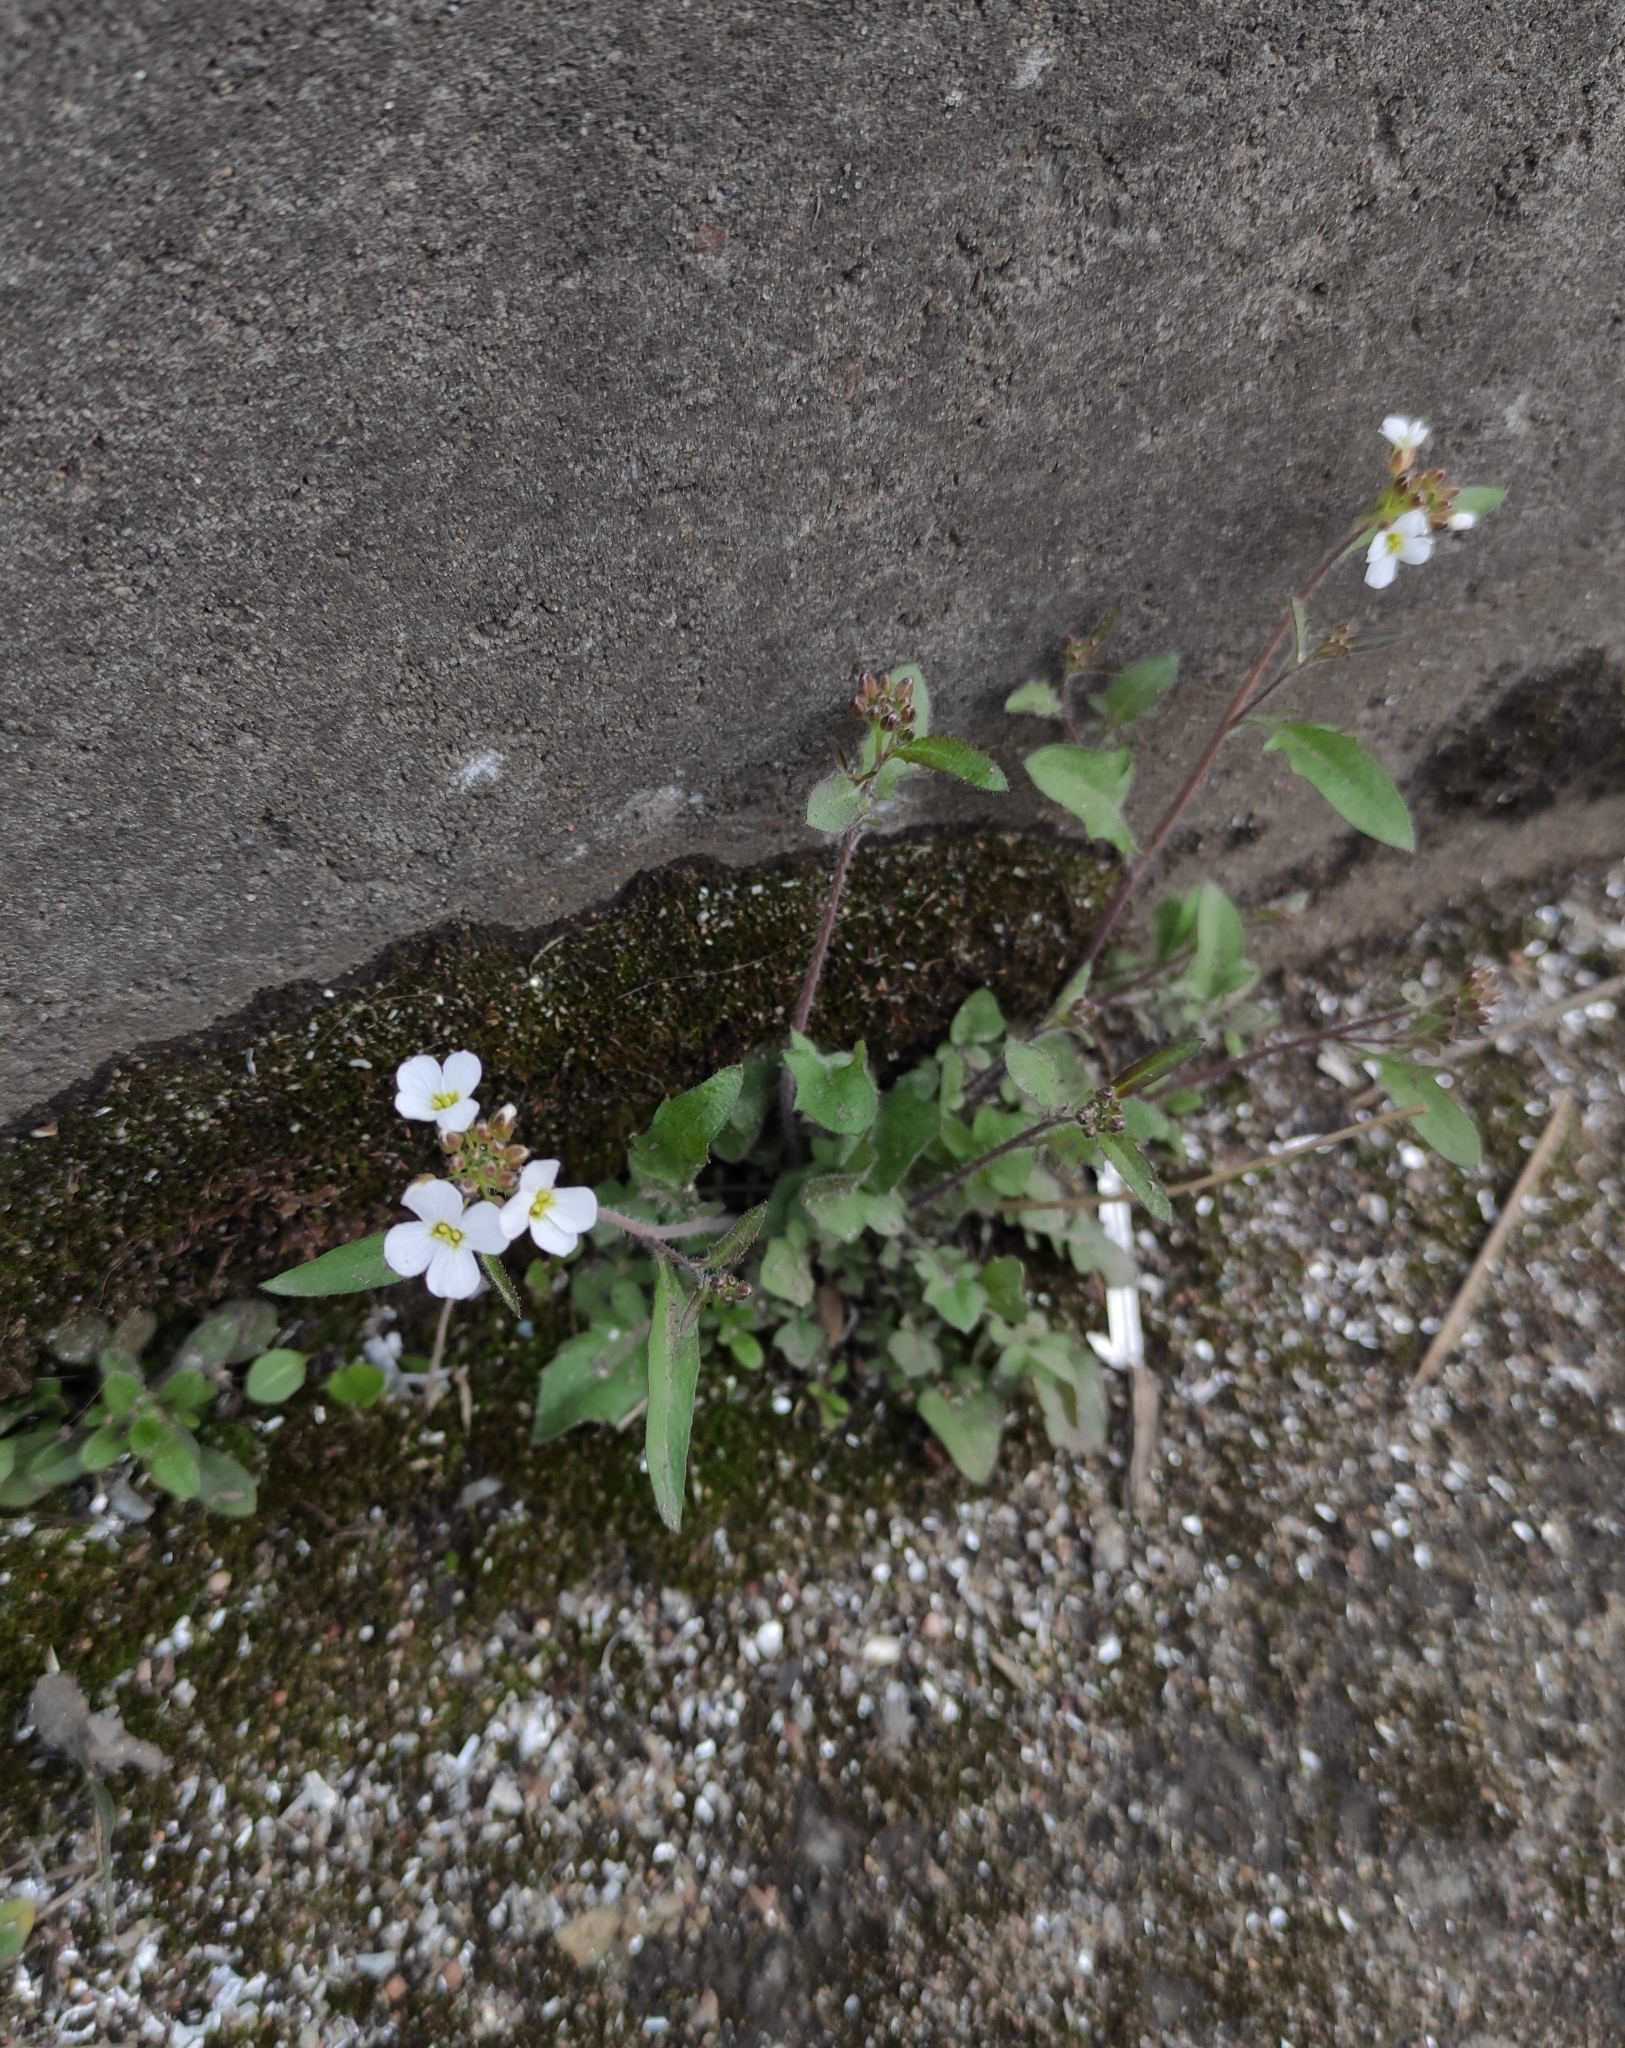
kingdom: Plantae
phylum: Tracheophyta
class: Magnoliopsida
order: Brassicales
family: Brassicaceae
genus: Arabidopsis
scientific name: Arabidopsis arenosa
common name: Sand rock-cress
